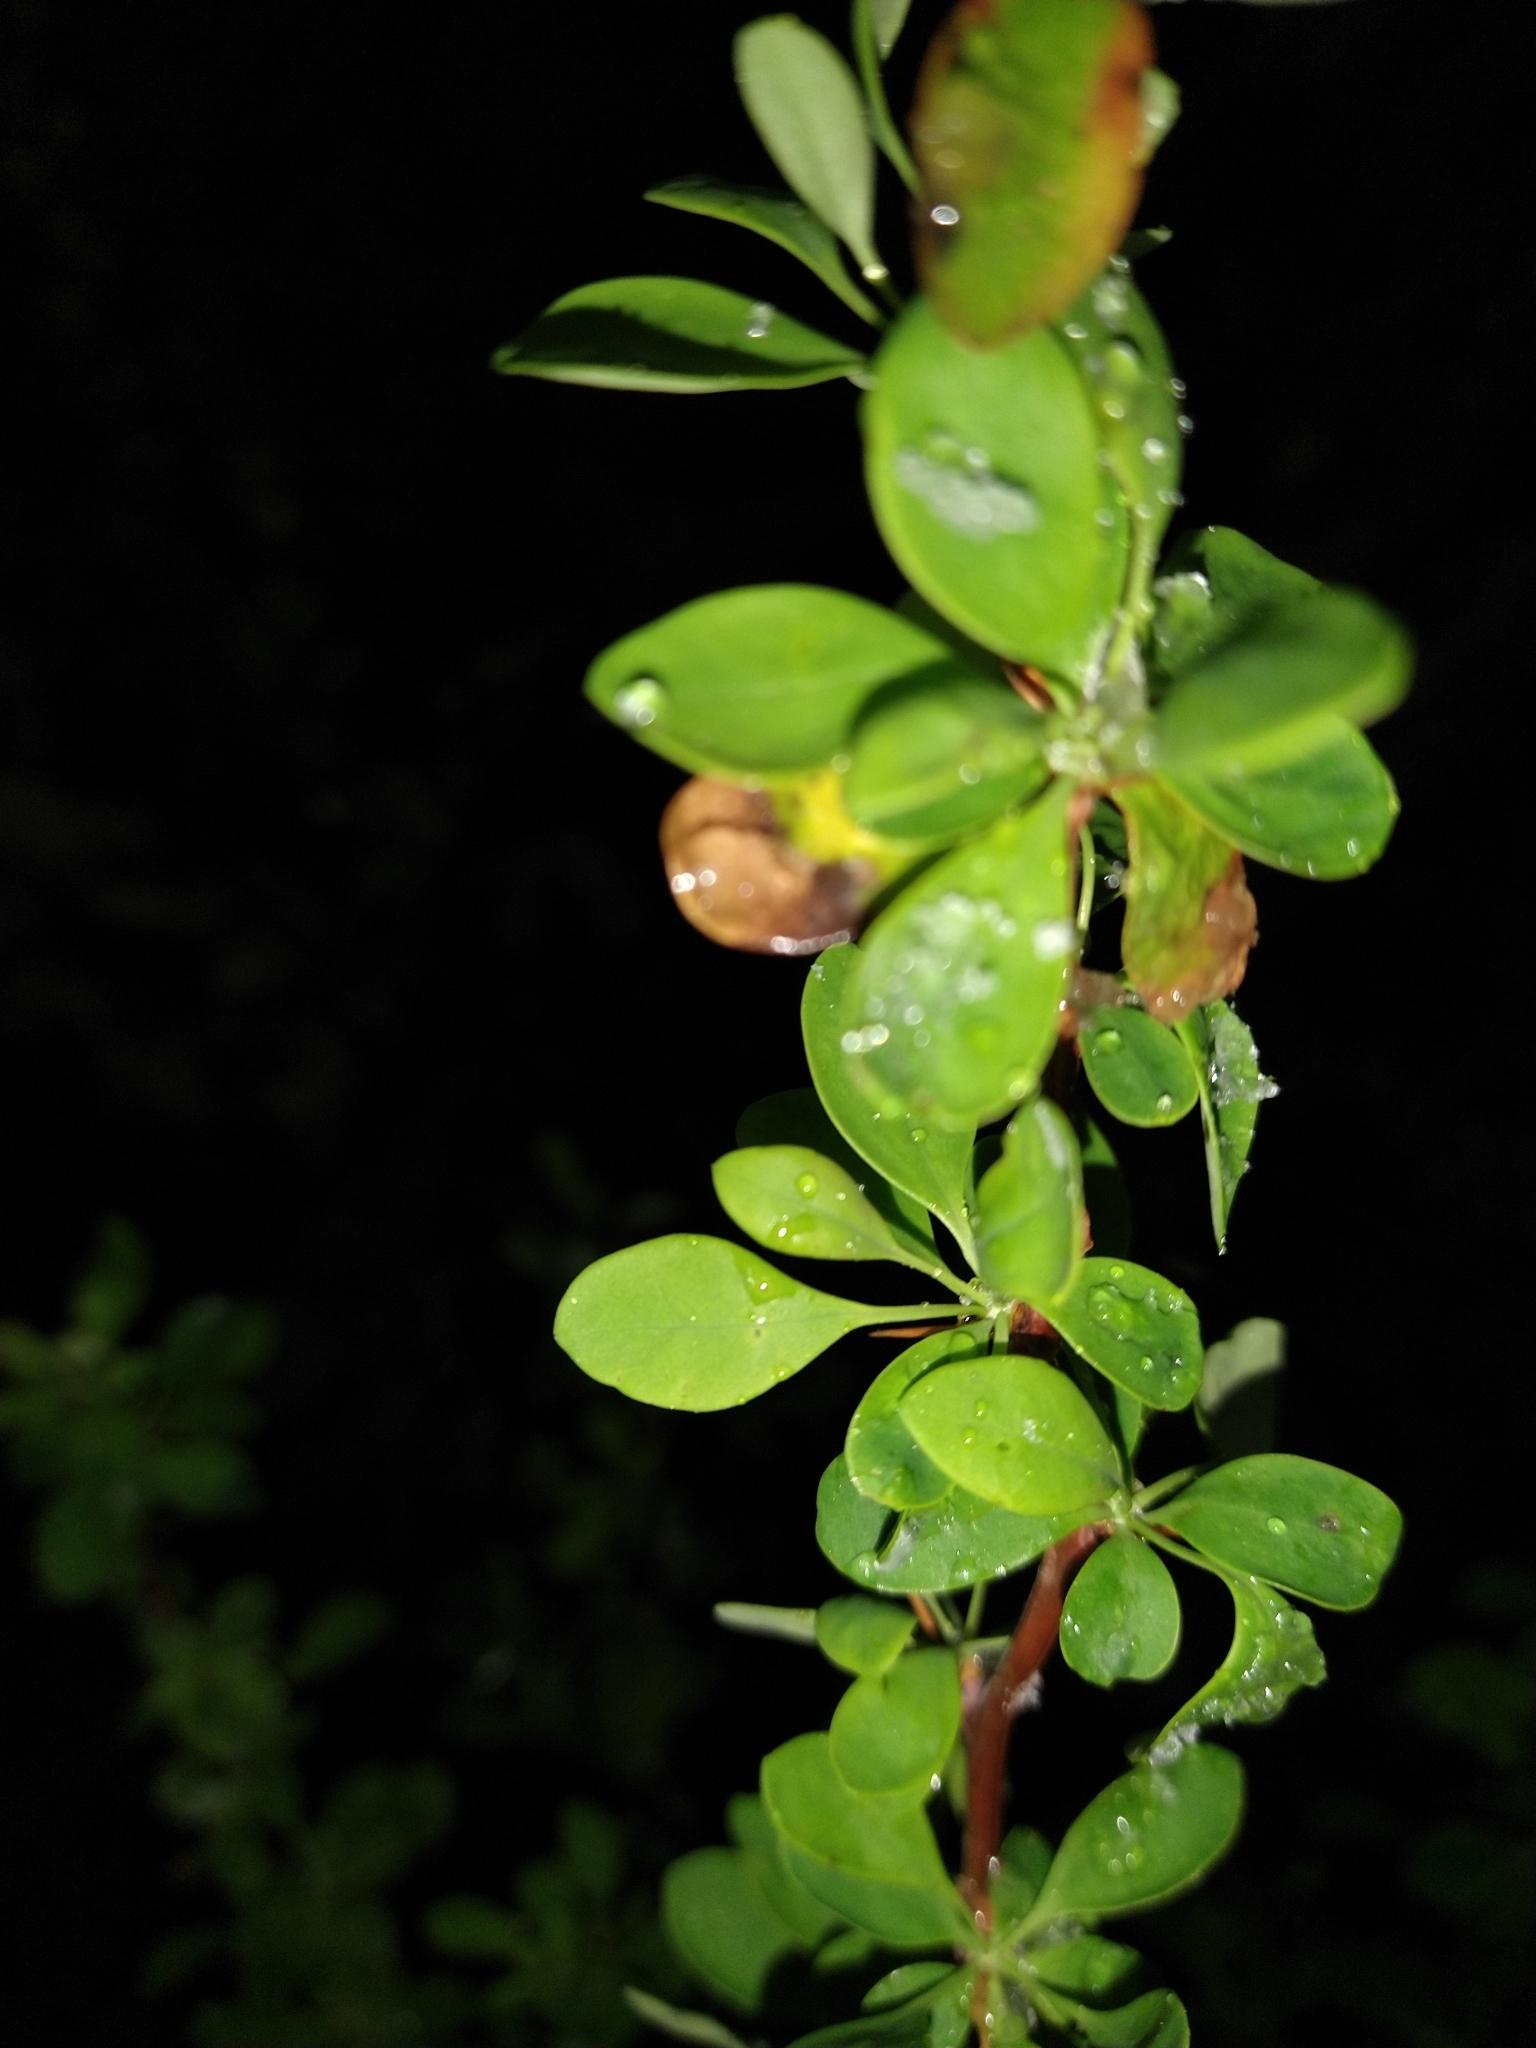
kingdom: Plantae
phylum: Tracheophyta
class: Magnoliopsida
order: Ranunculales
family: Berberidaceae
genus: Berberis
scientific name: Berberis microphylla
